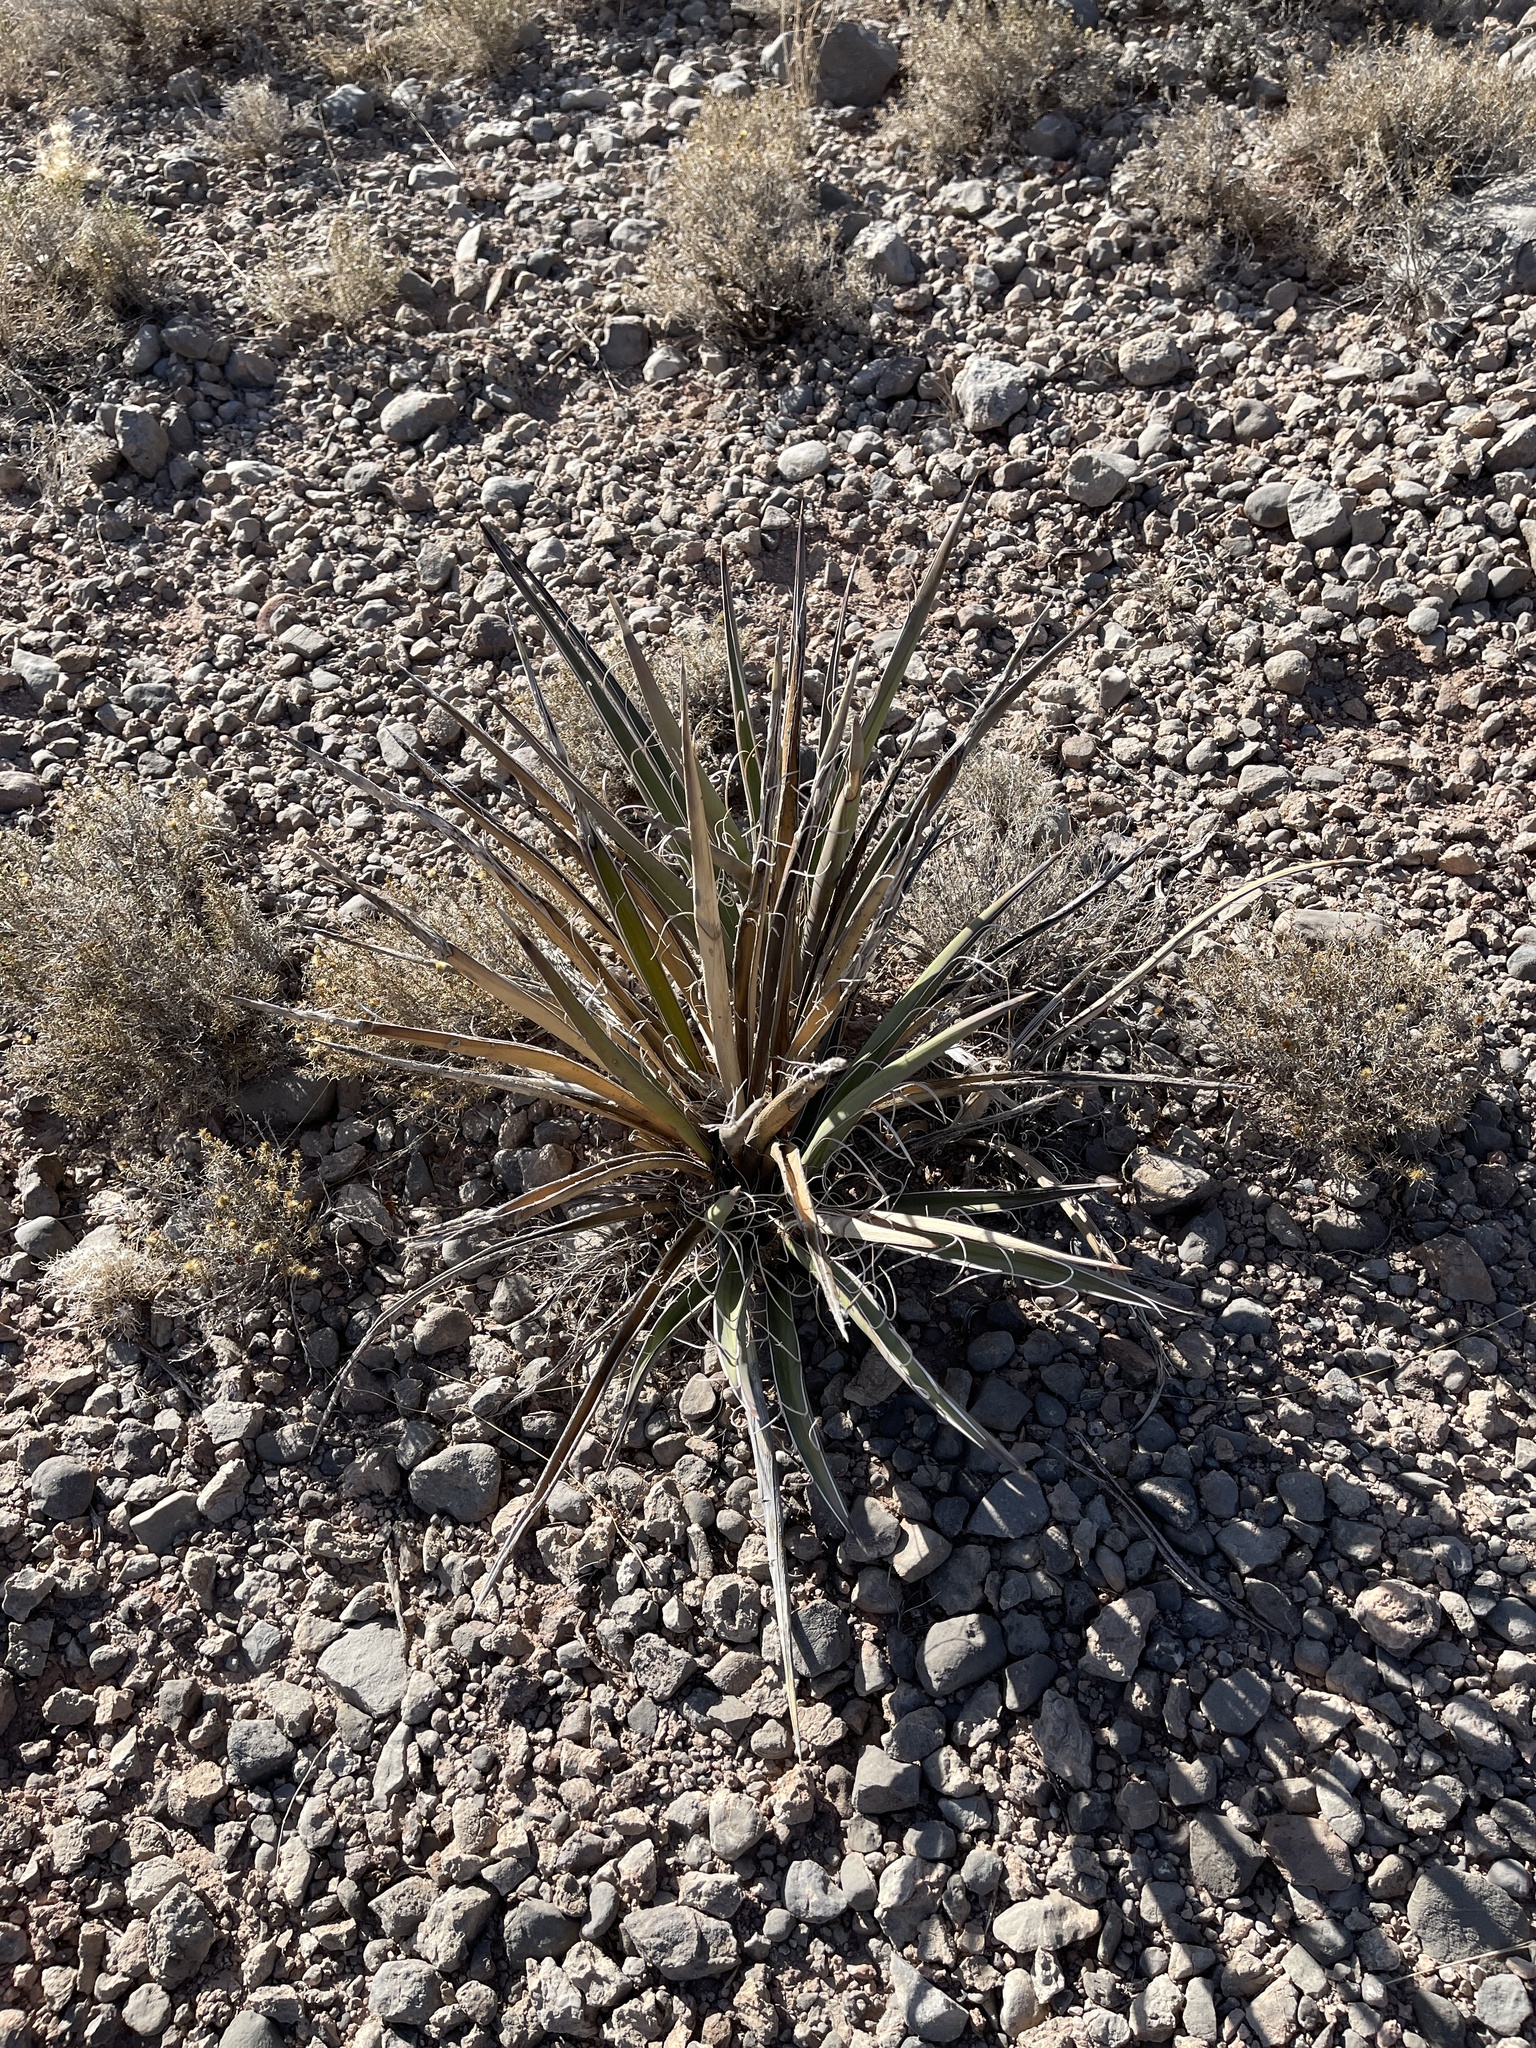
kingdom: Plantae
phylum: Tracheophyta
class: Liliopsida
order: Asparagales
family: Asparagaceae
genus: Yucca
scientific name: Yucca baccata
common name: Banana yucca
